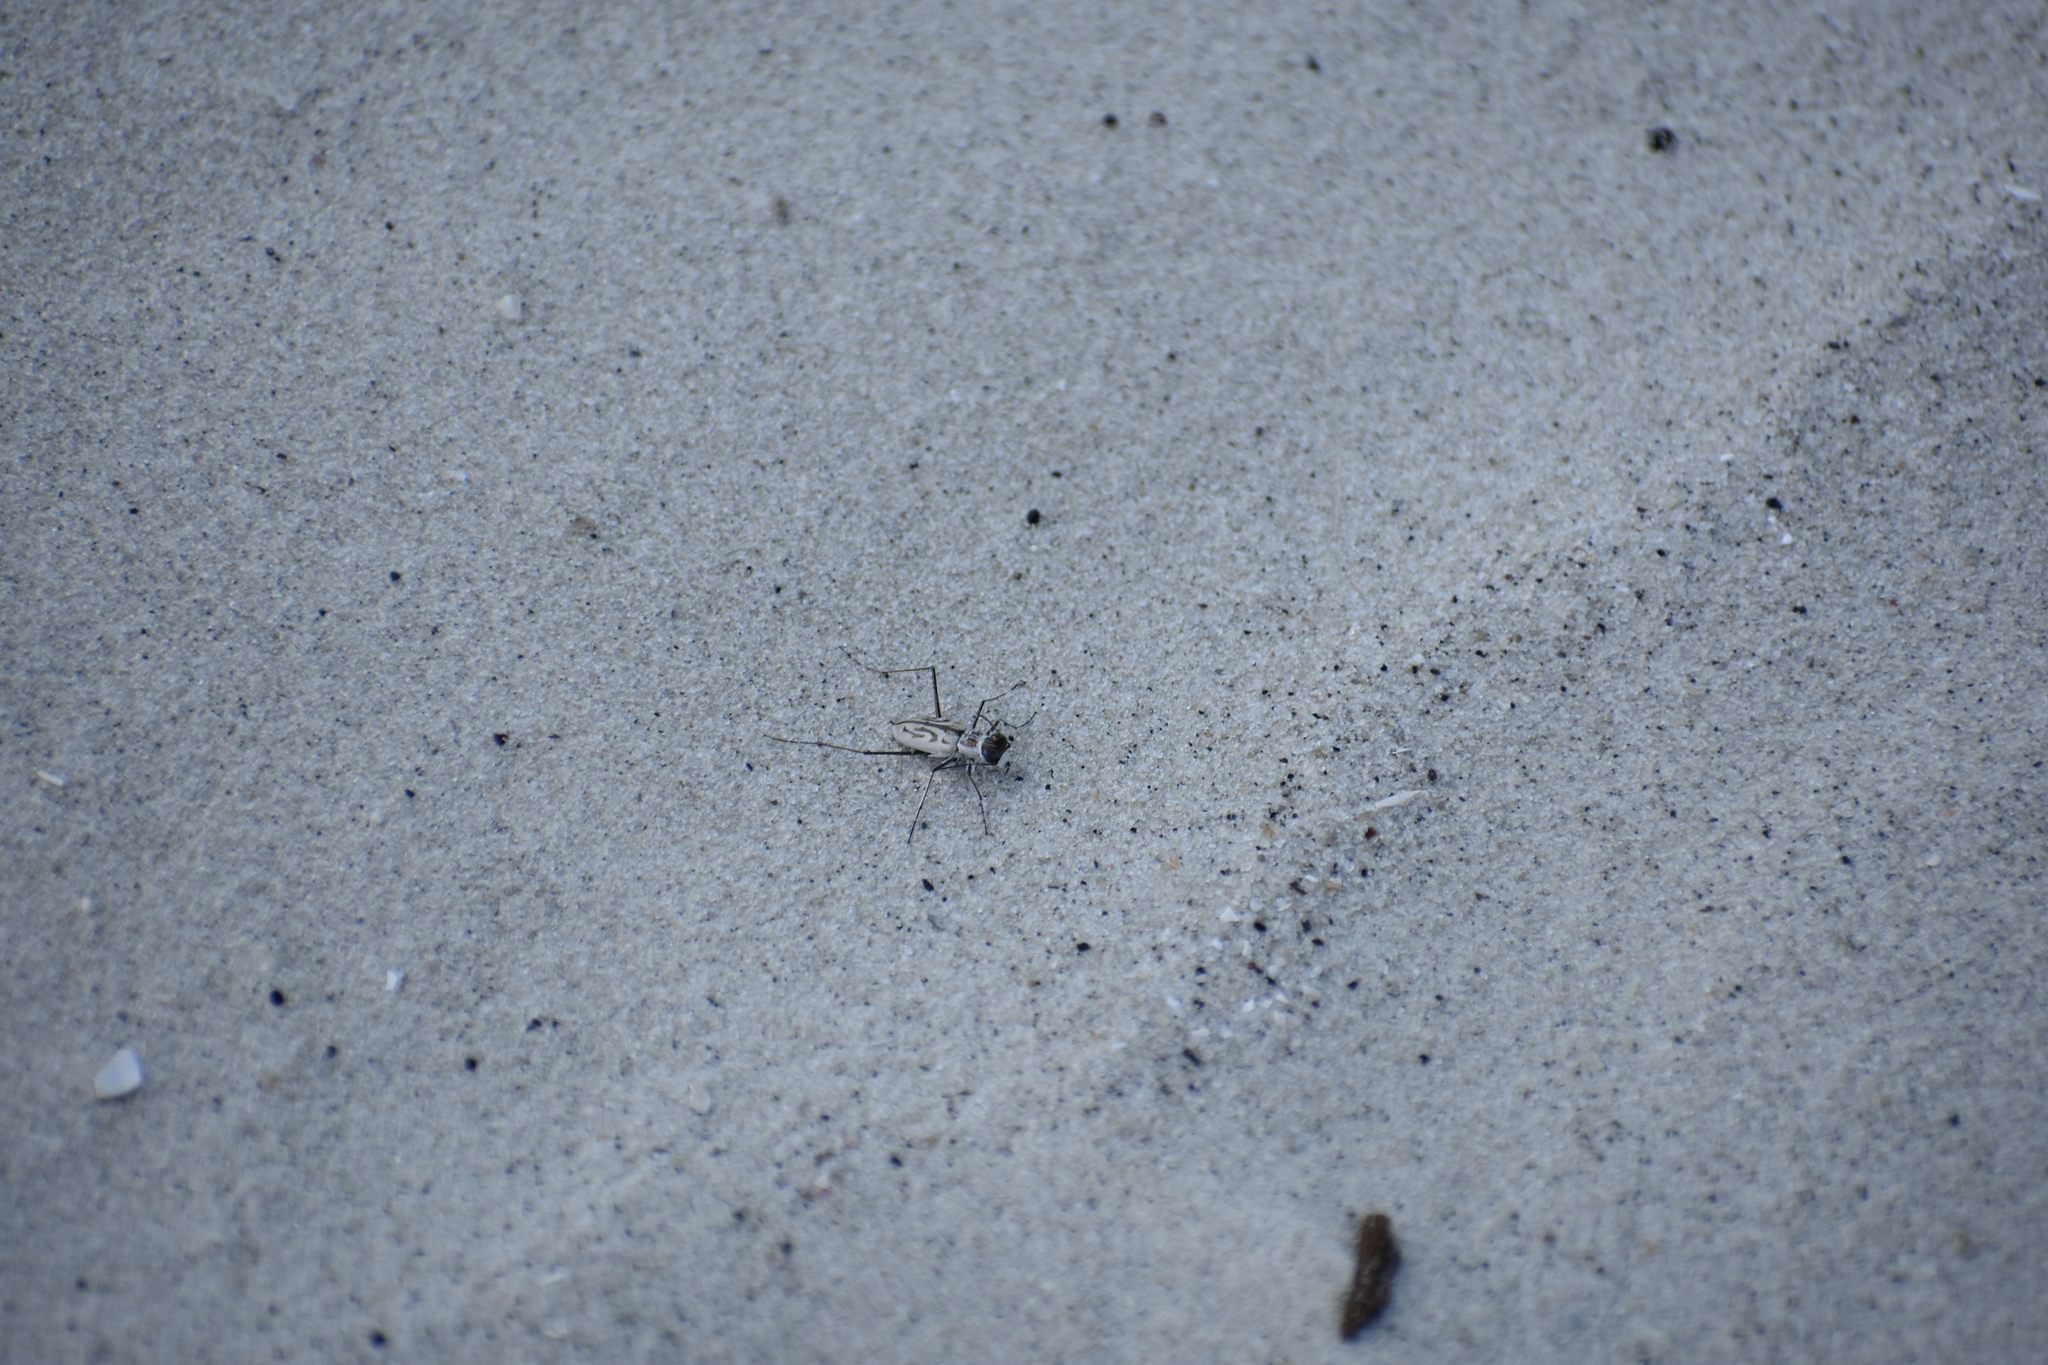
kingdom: Animalia
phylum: Arthropoda
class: Insecta
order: Coleoptera
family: Carabidae
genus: Habroscelimorpha
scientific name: Habroscelimorpha dorsalis
